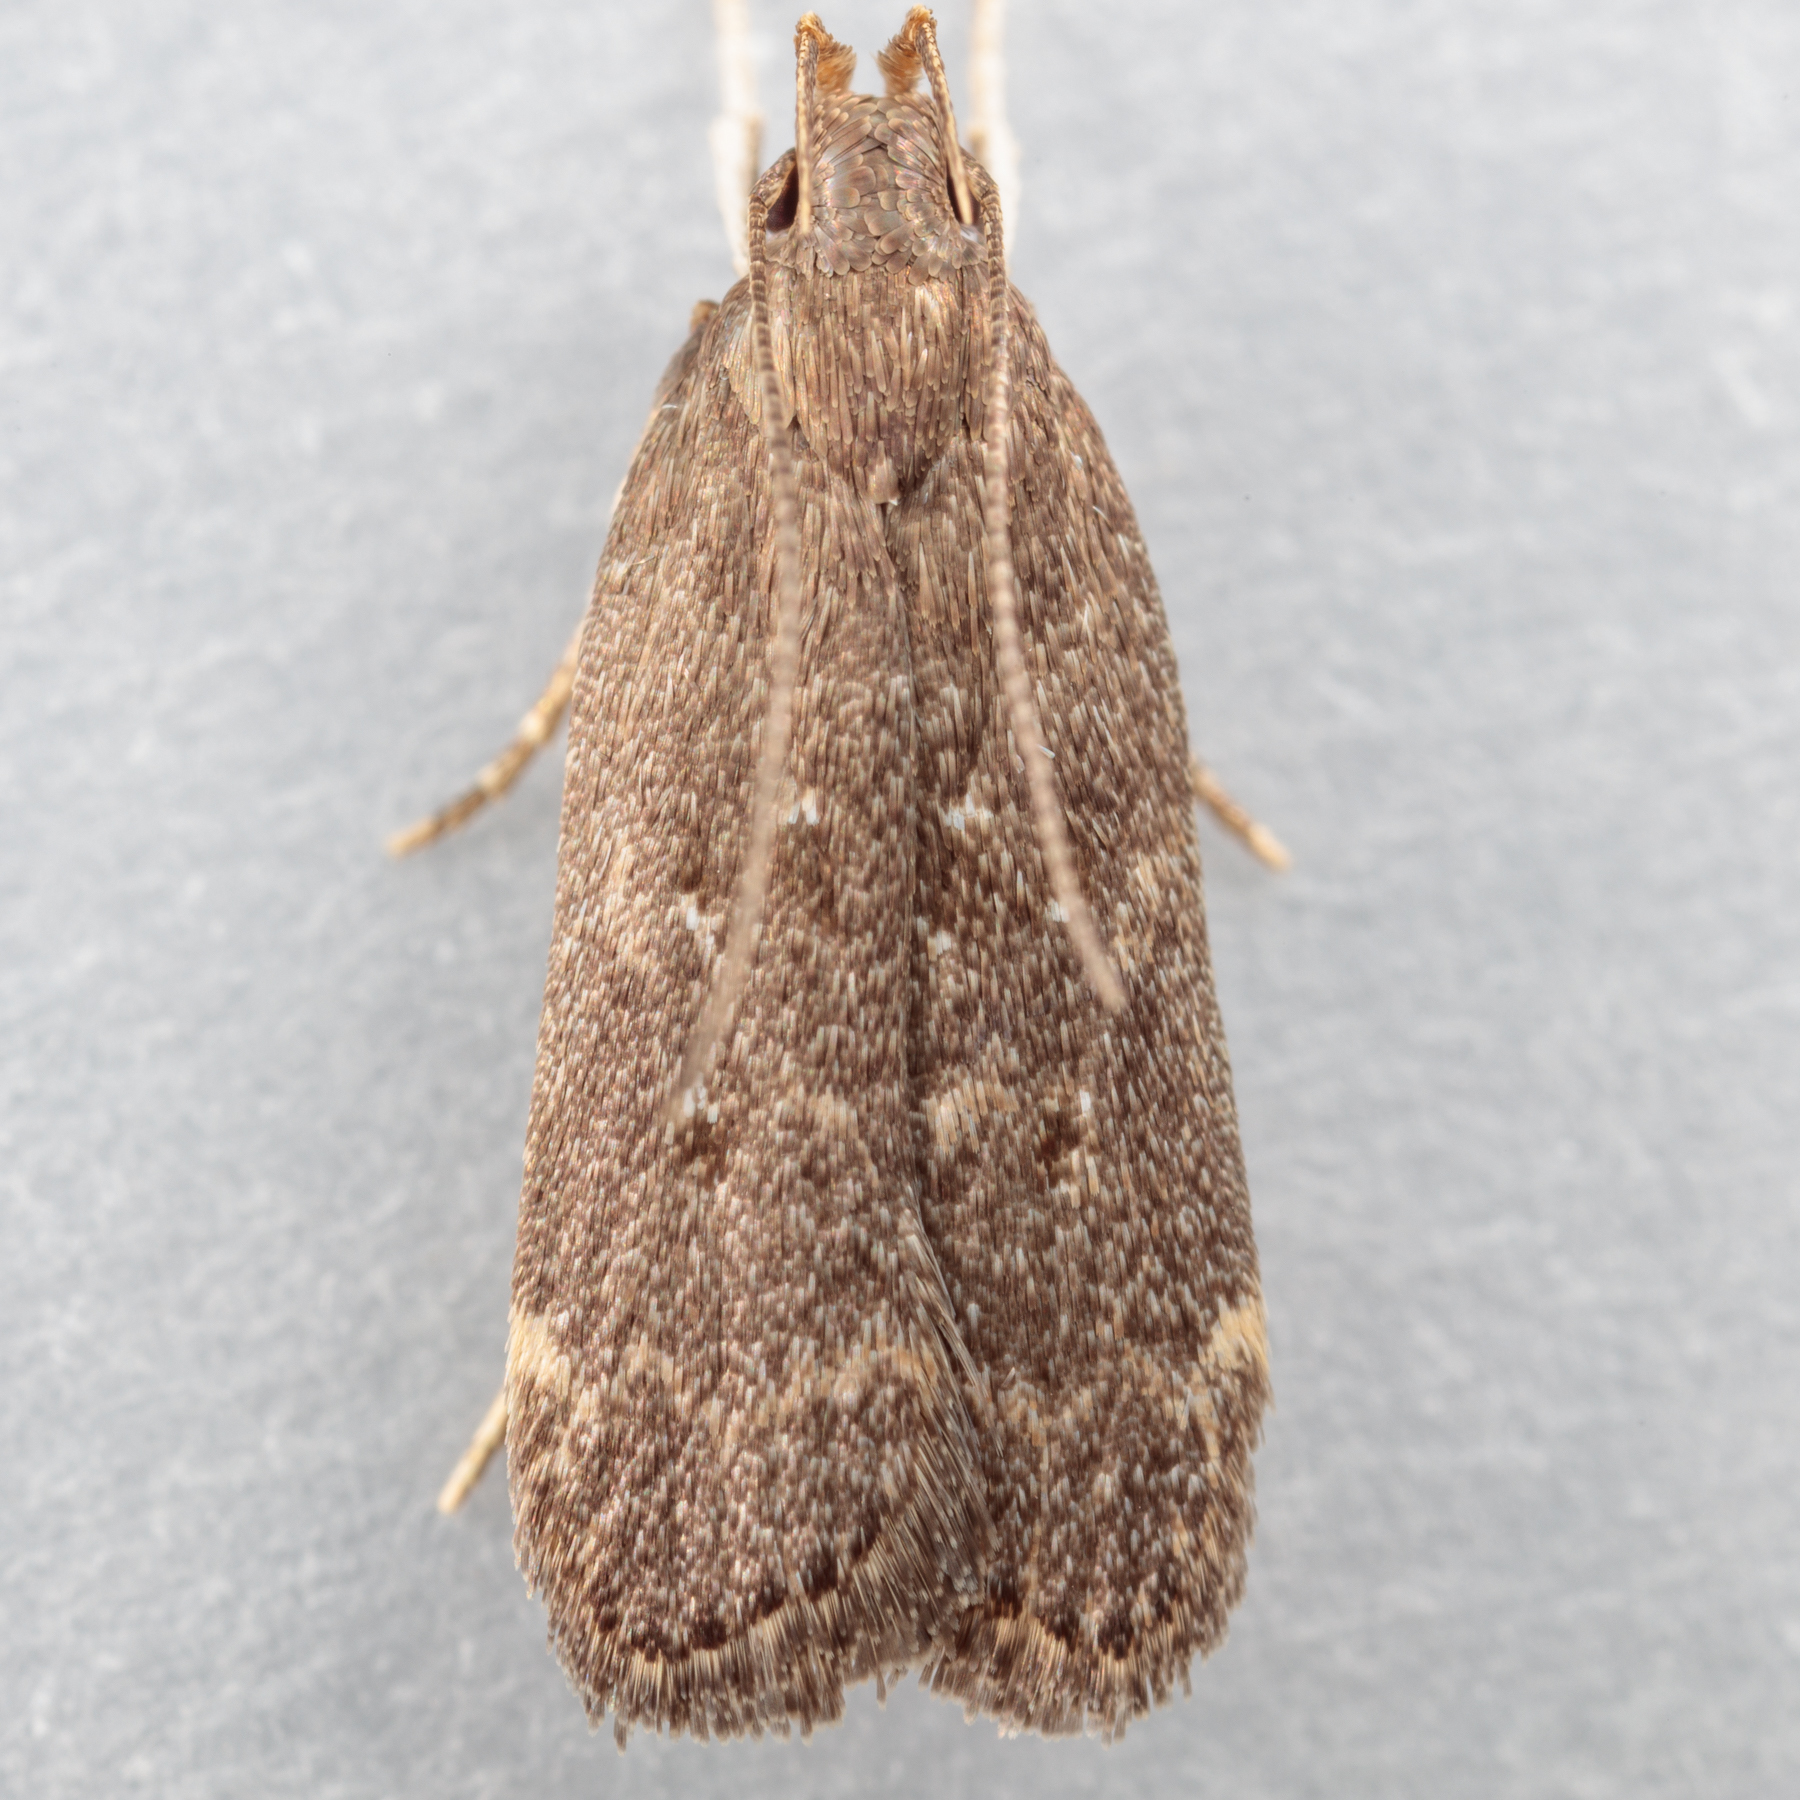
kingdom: Animalia
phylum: Arthropoda
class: Insecta
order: Lepidoptera
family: Gelechiidae
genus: Helcystogramma
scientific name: Helcystogramma melantherella
